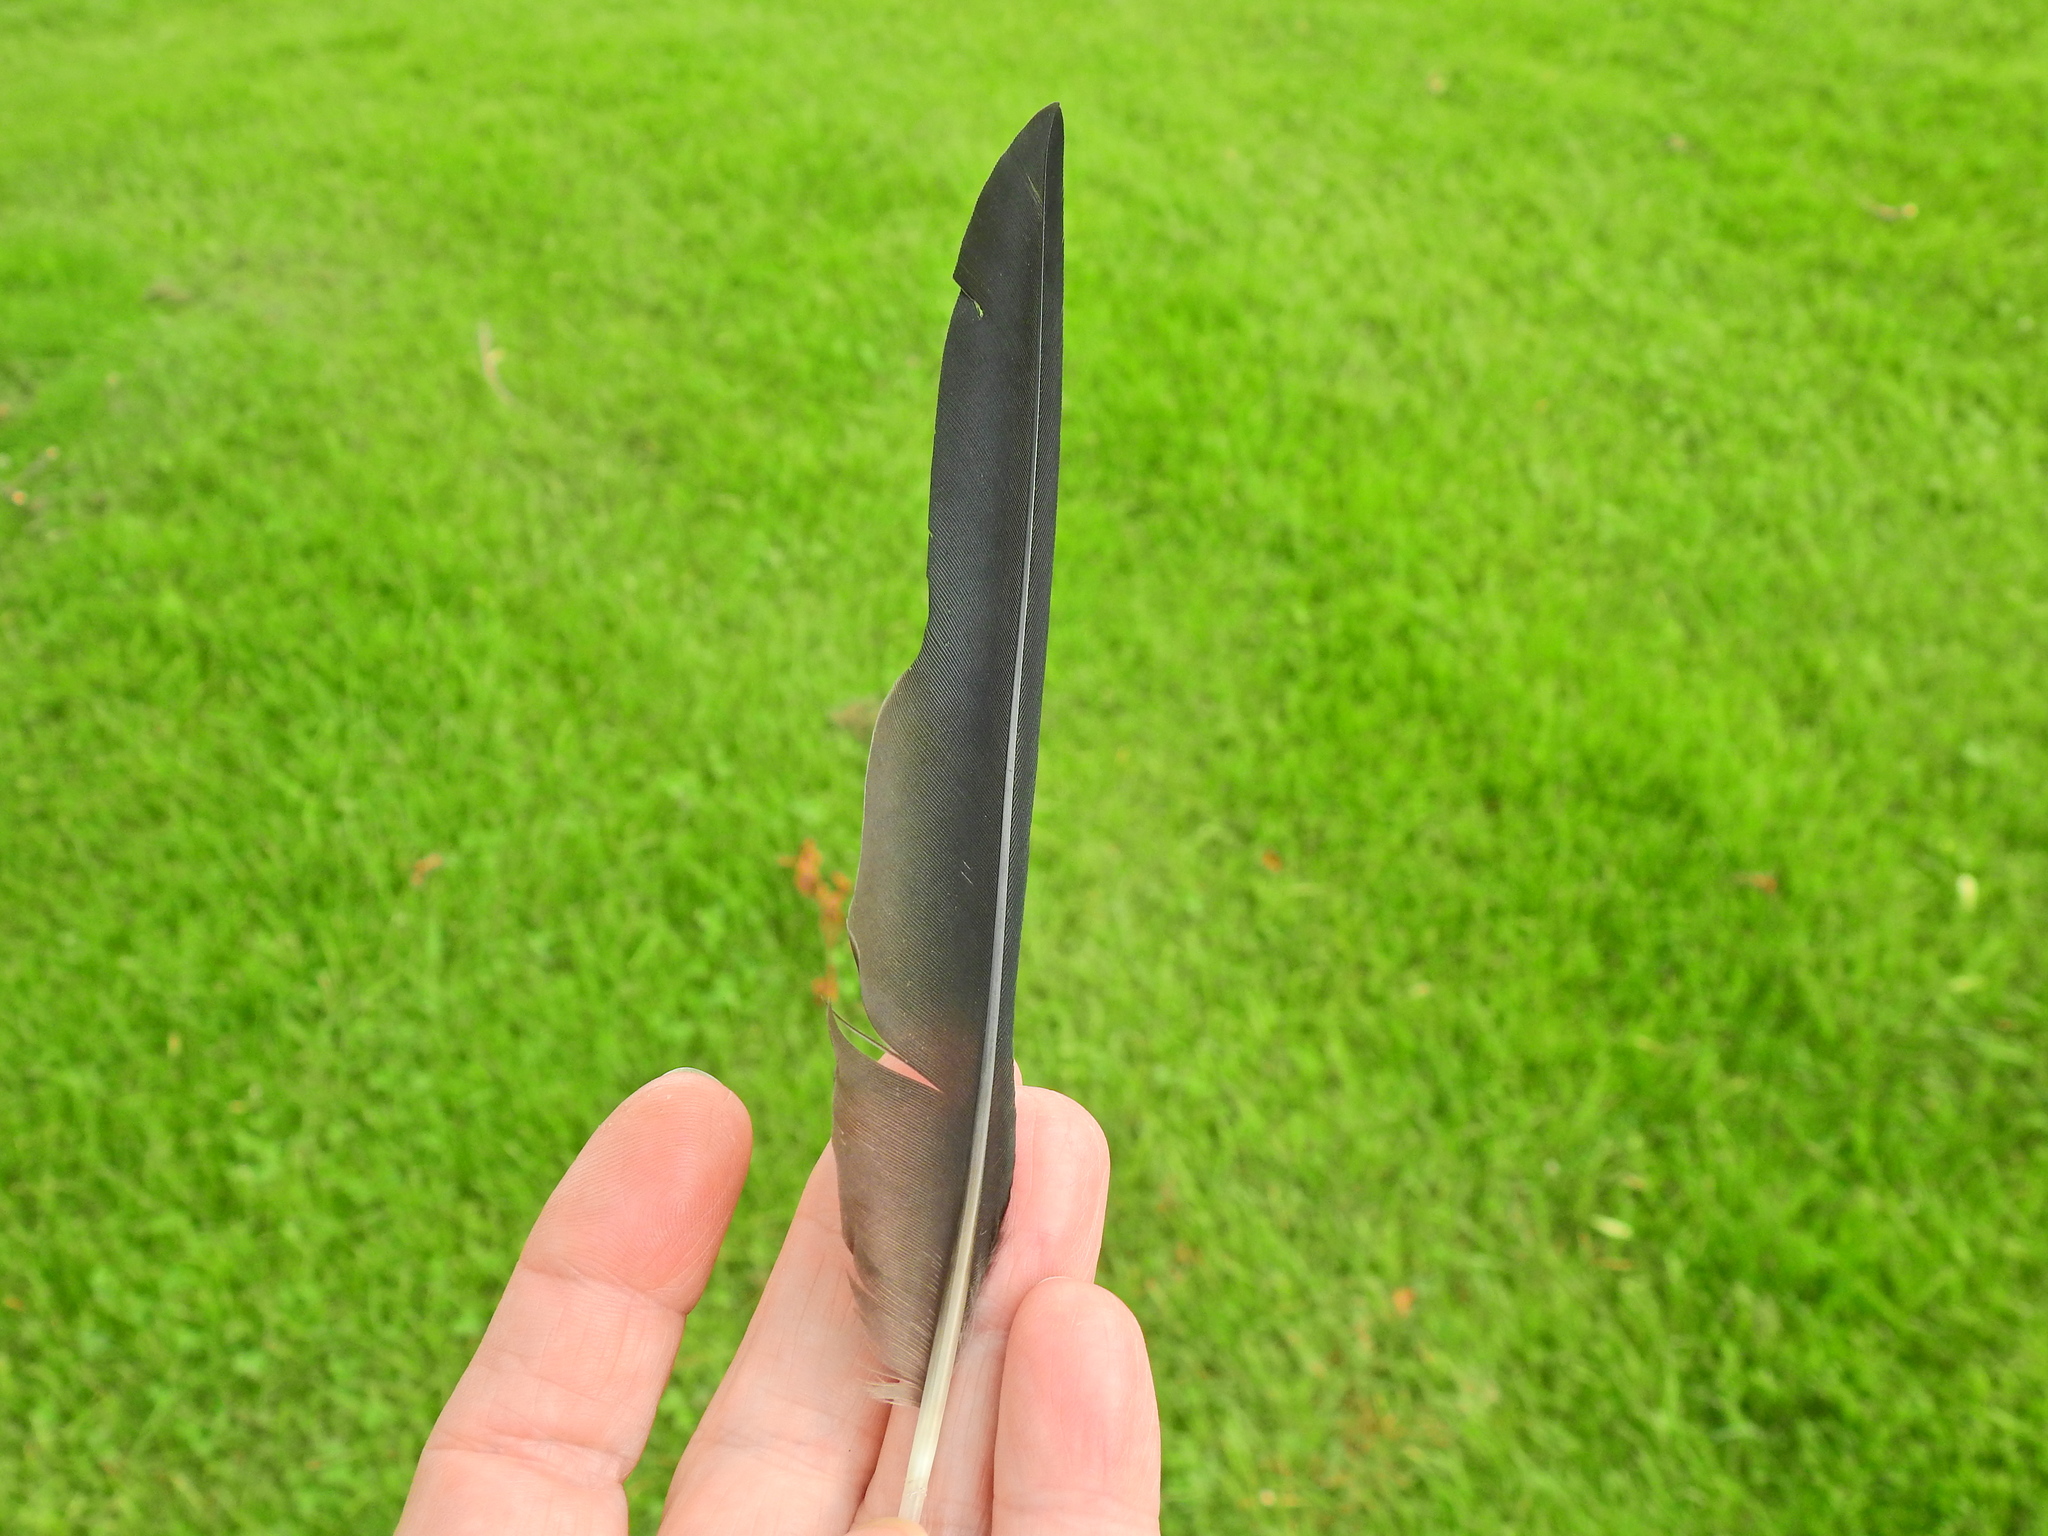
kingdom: Animalia
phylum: Chordata
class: Aves
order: Passeriformes
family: Corvidae
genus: Coloeus
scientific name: Coloeus monedula
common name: Western jackdaw
